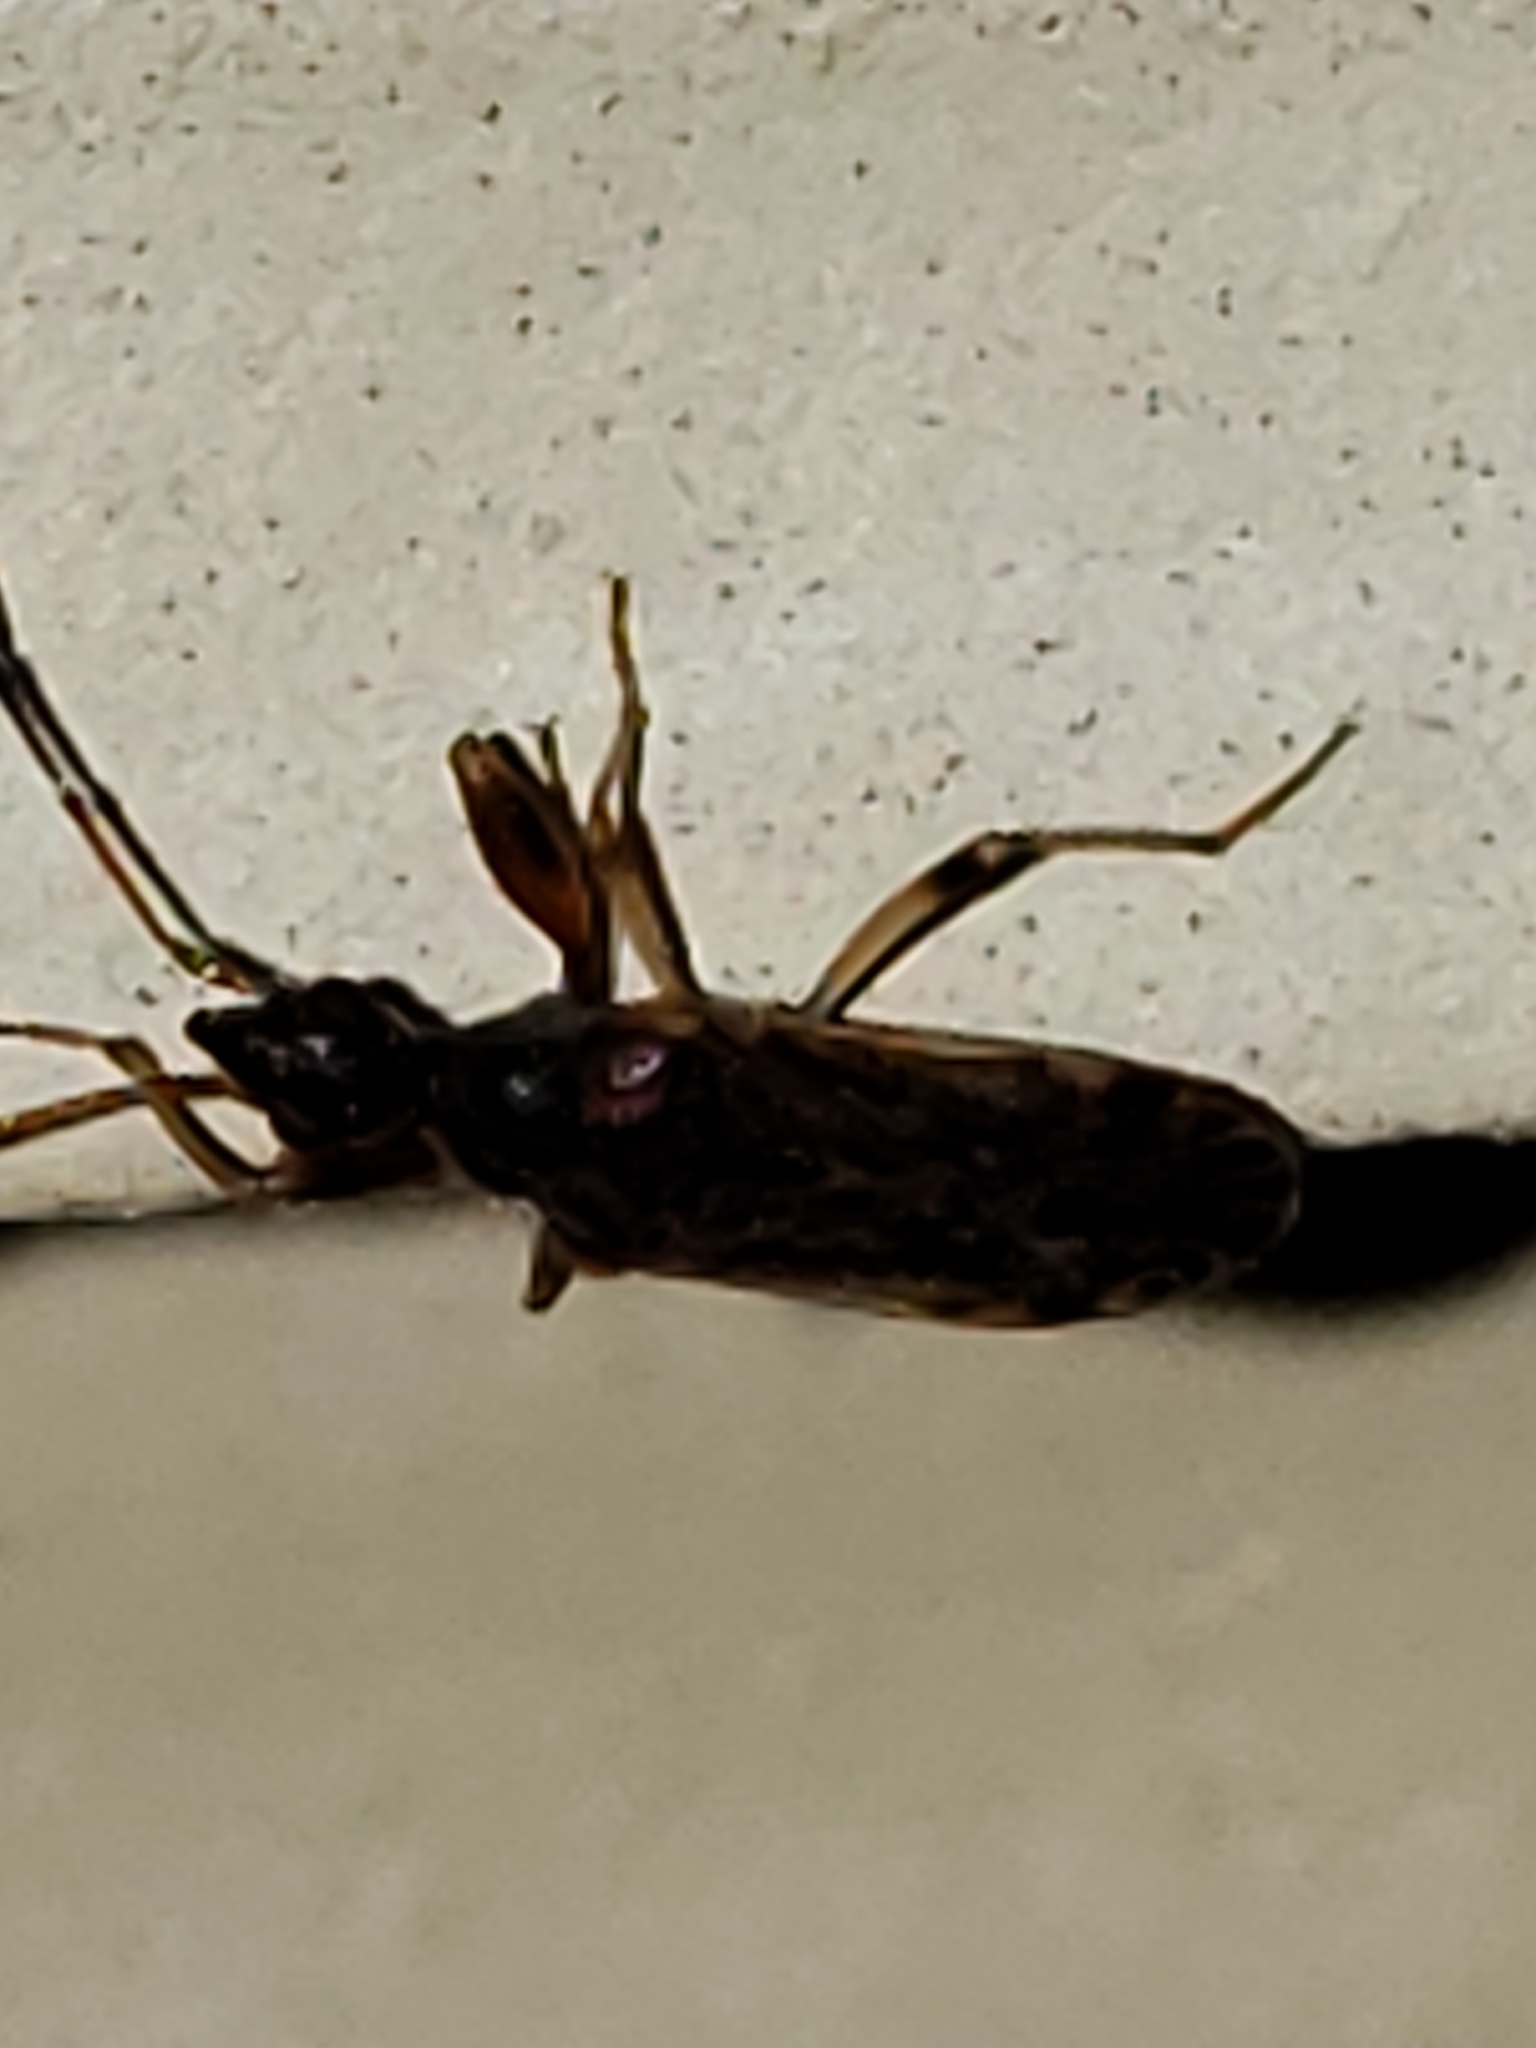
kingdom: Animalia
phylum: Arthropoda
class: Insecta
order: Hemiptera
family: Rhyparochromidae
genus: Ozophora
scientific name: Ozophora picturata
